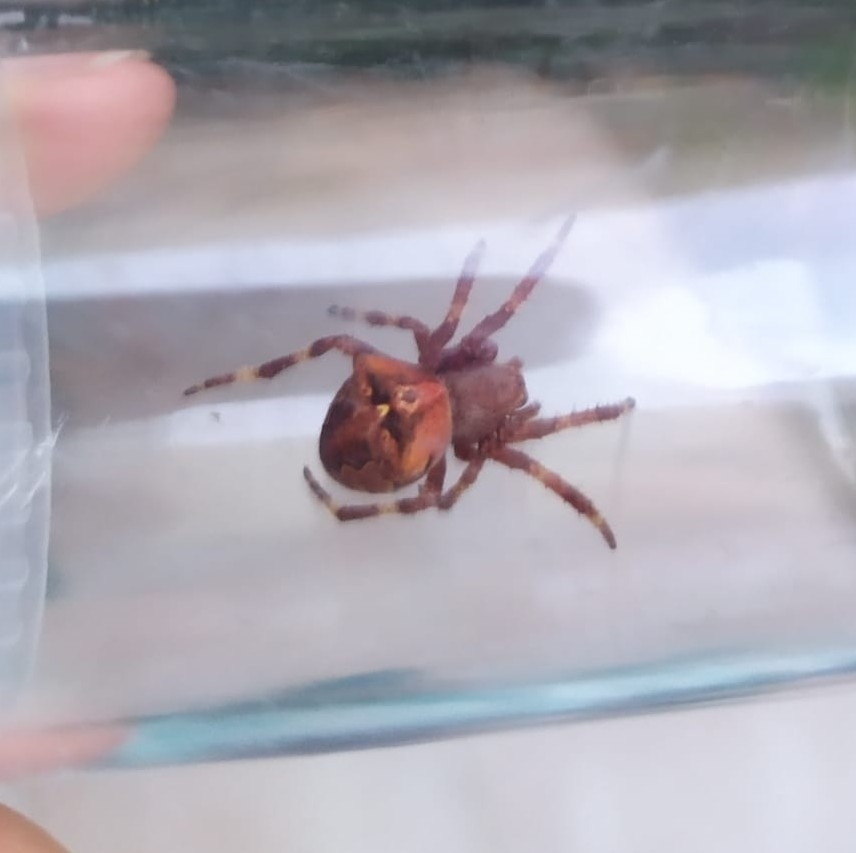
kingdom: Animalia
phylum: Arthropoda
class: Arachnida
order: Araneae
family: Araneidae
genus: Araneus
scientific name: Araneus angulatus
